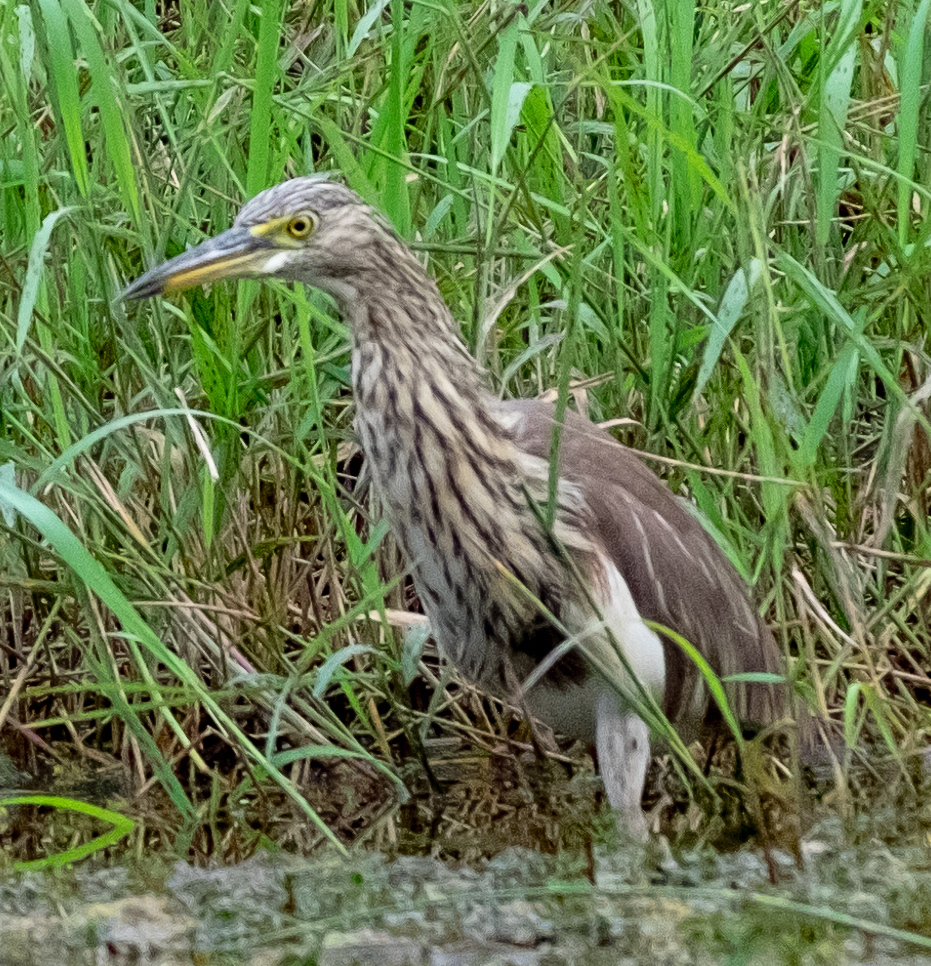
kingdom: Animalia
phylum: Chordata
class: Aves
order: Pelecaniformes
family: Ardeidae
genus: Ardeola
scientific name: Ardeola bacchus
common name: Chinese pond heron
